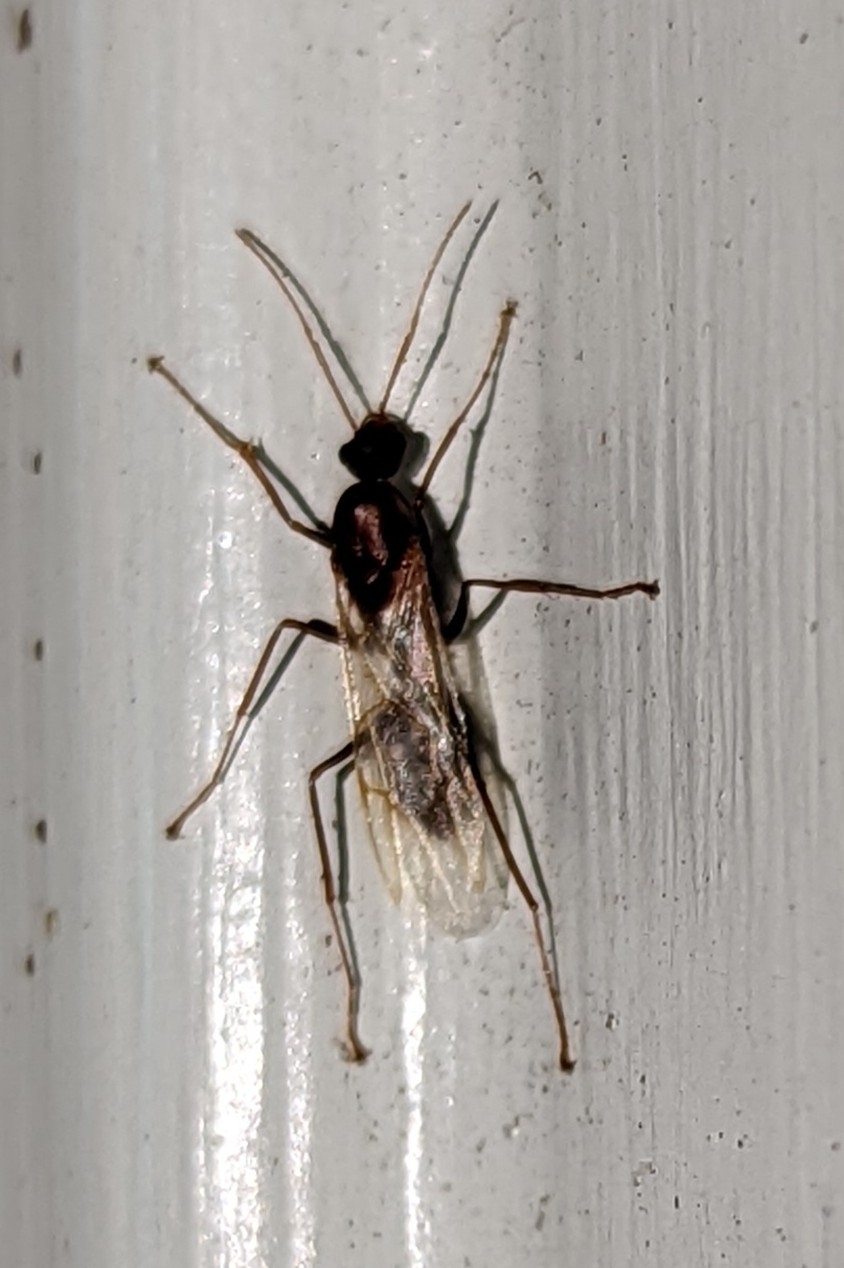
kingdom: Animalia
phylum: Arthropoda
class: Insecta
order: Hymenoptera
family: Formicidae
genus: Camponotus
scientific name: Camponotus floridanus
